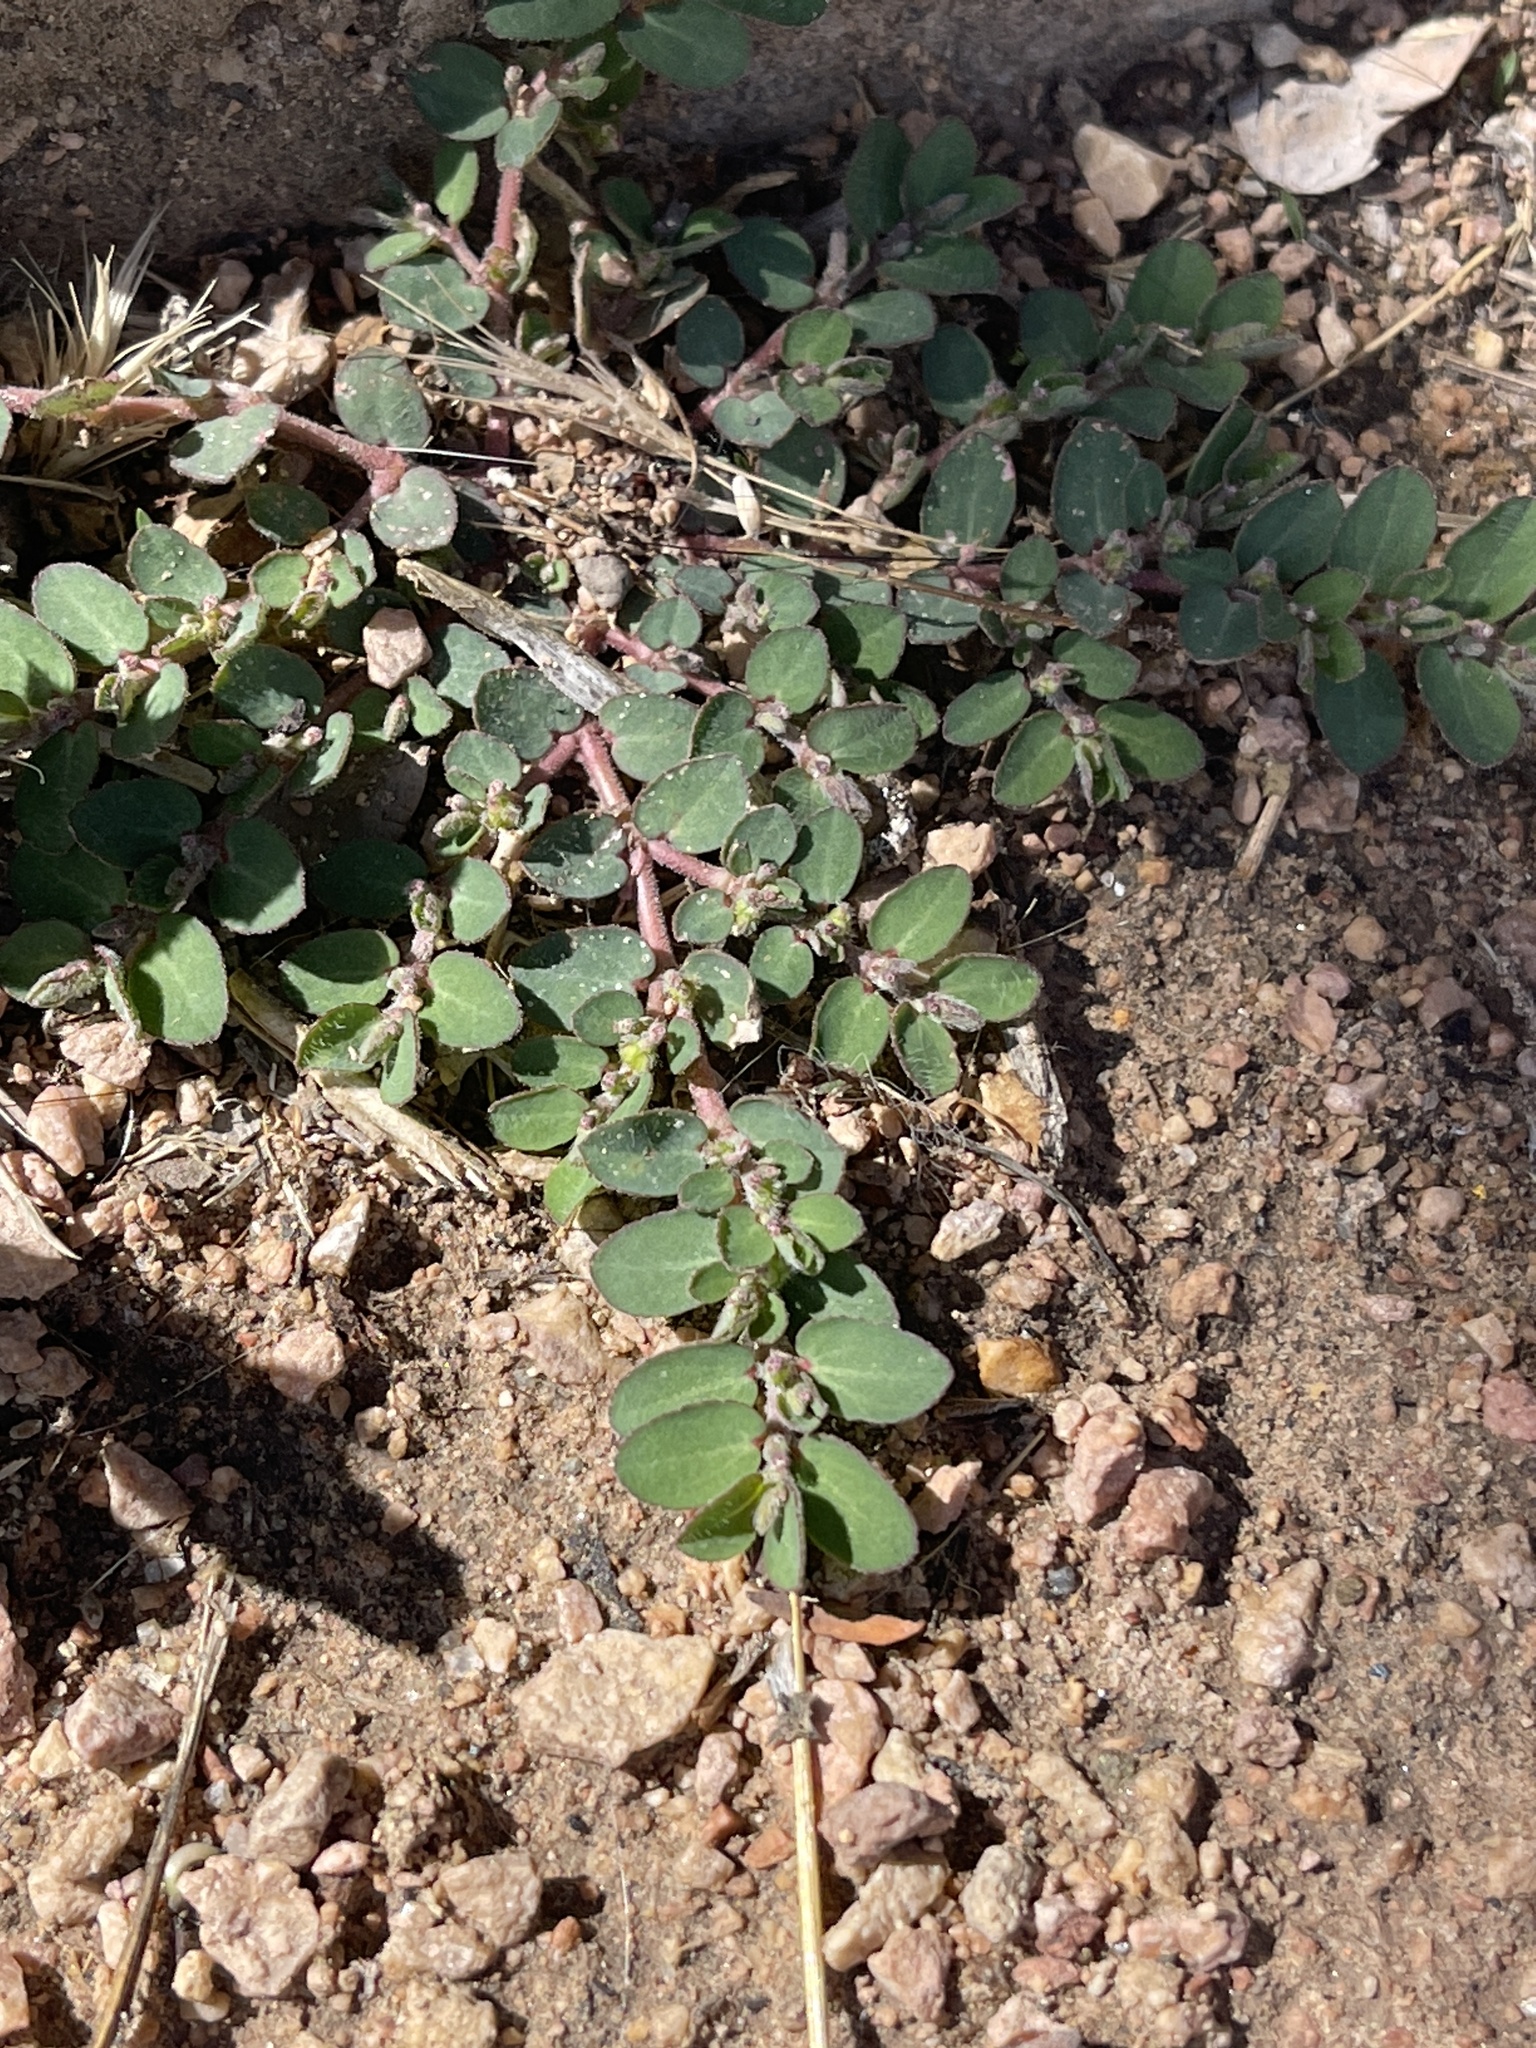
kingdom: Plantae
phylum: Tracheophyta
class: Magnoliopsida
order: Malpighiales
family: Euphorbiaceae
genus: Euphorbia
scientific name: Euphorbia prostrata
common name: Prostrate sandmat
